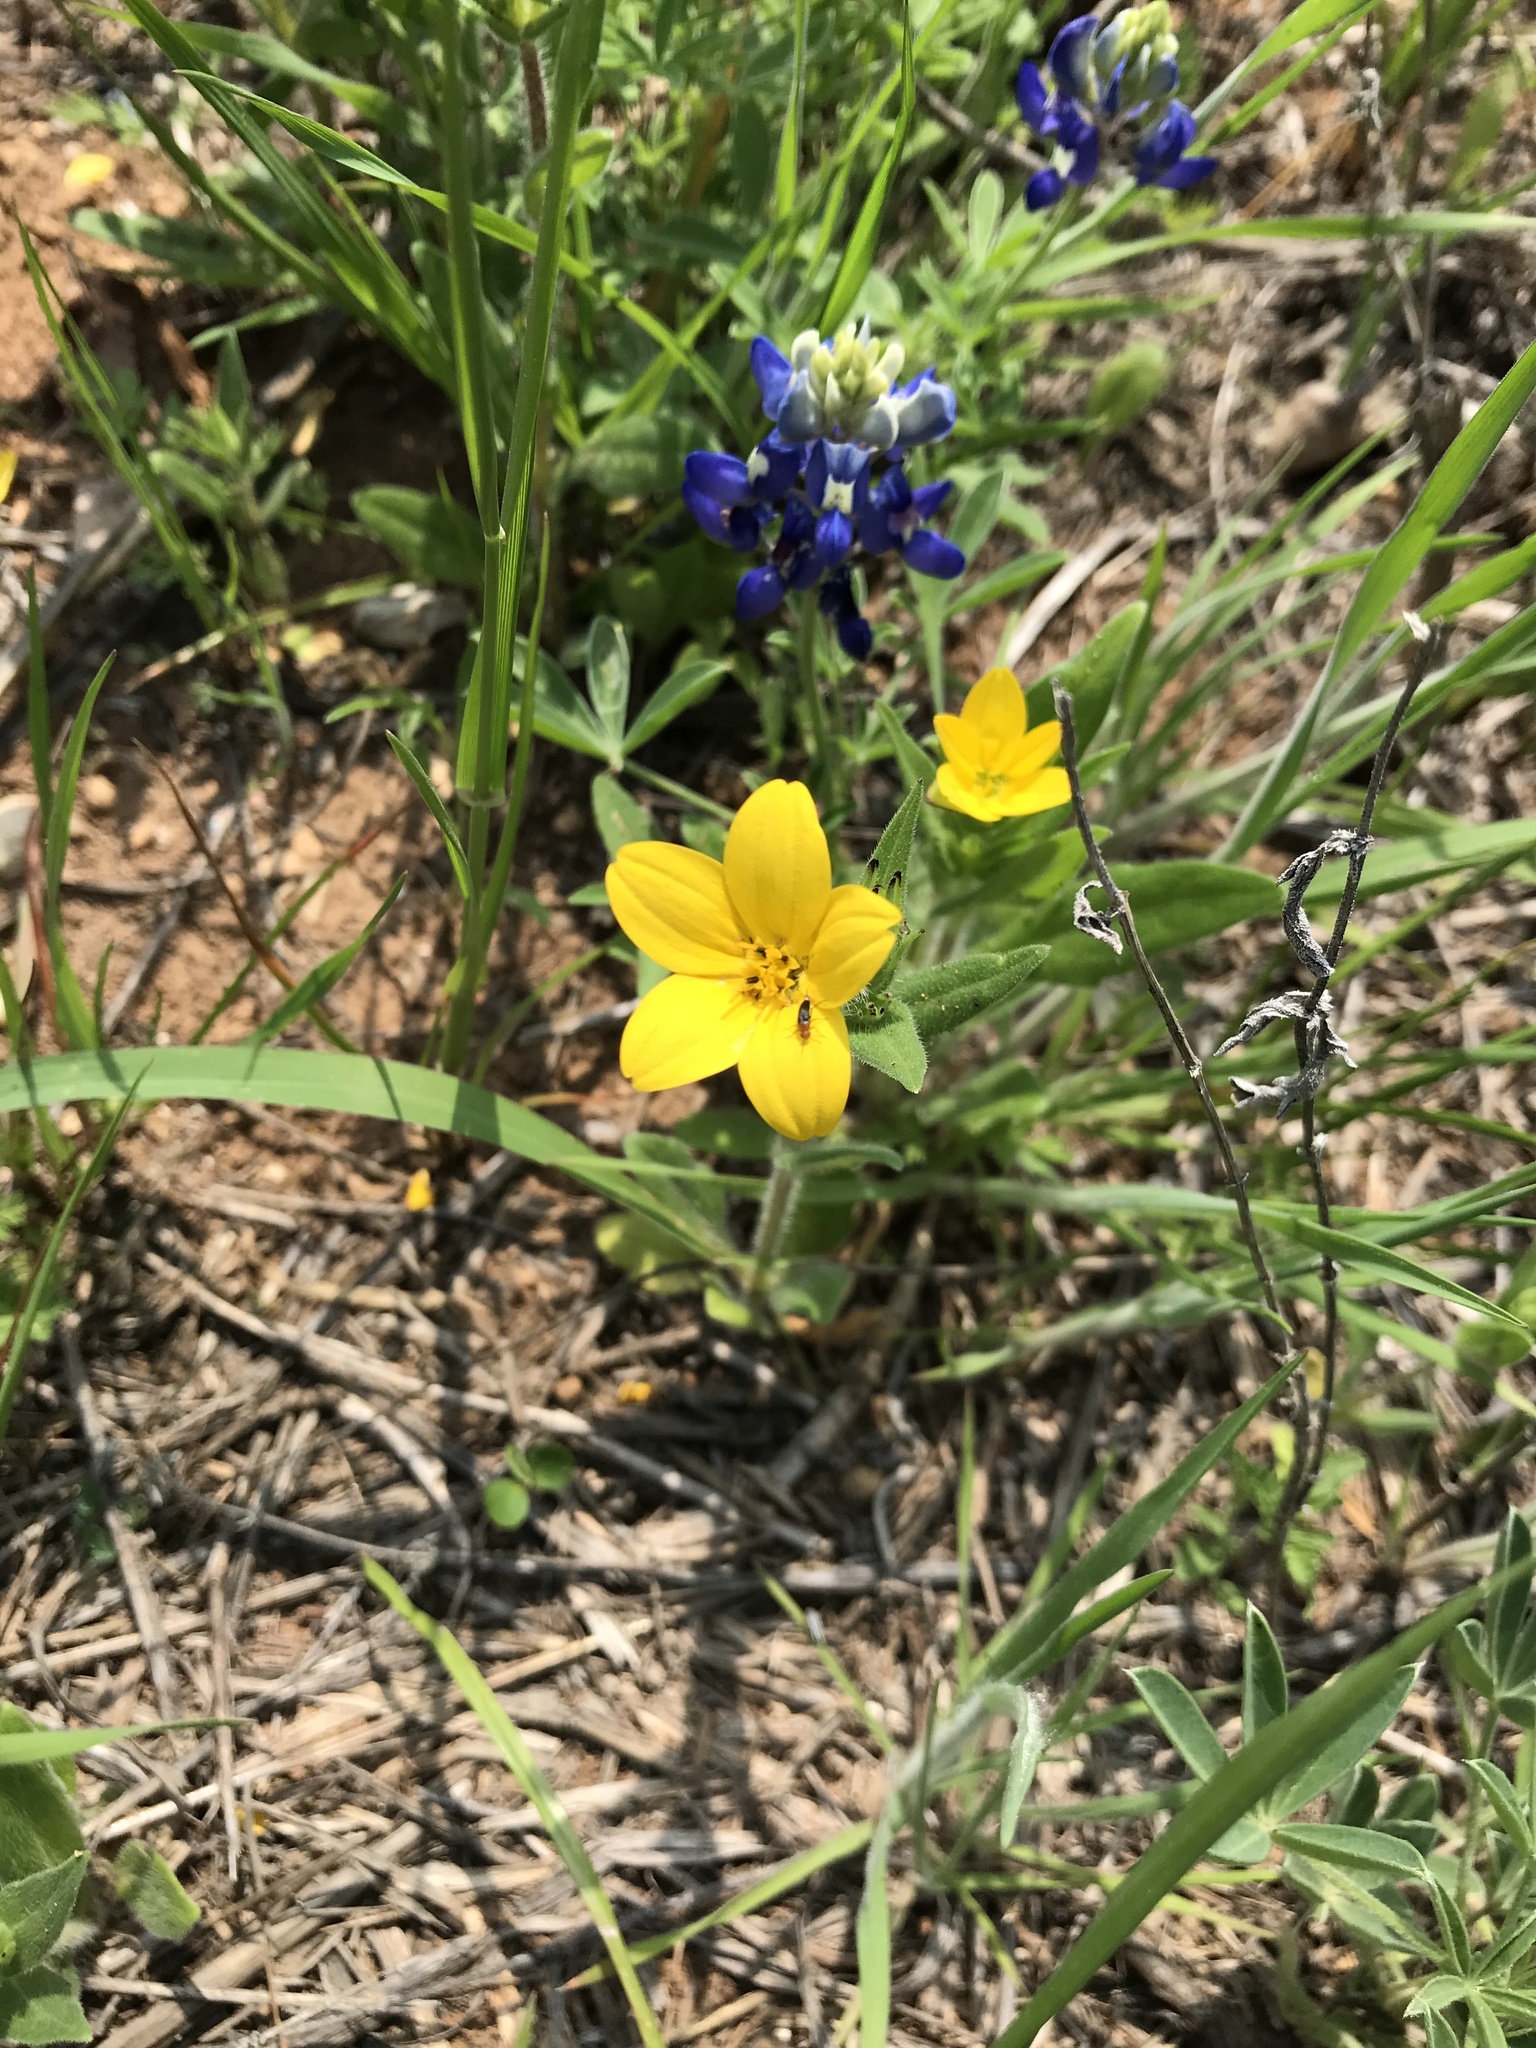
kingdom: Plantae
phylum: Tracheophyta
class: Magnoliopsida
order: Asterales
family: Asteraceae
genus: Lindheimera
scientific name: Lindheimera texana
